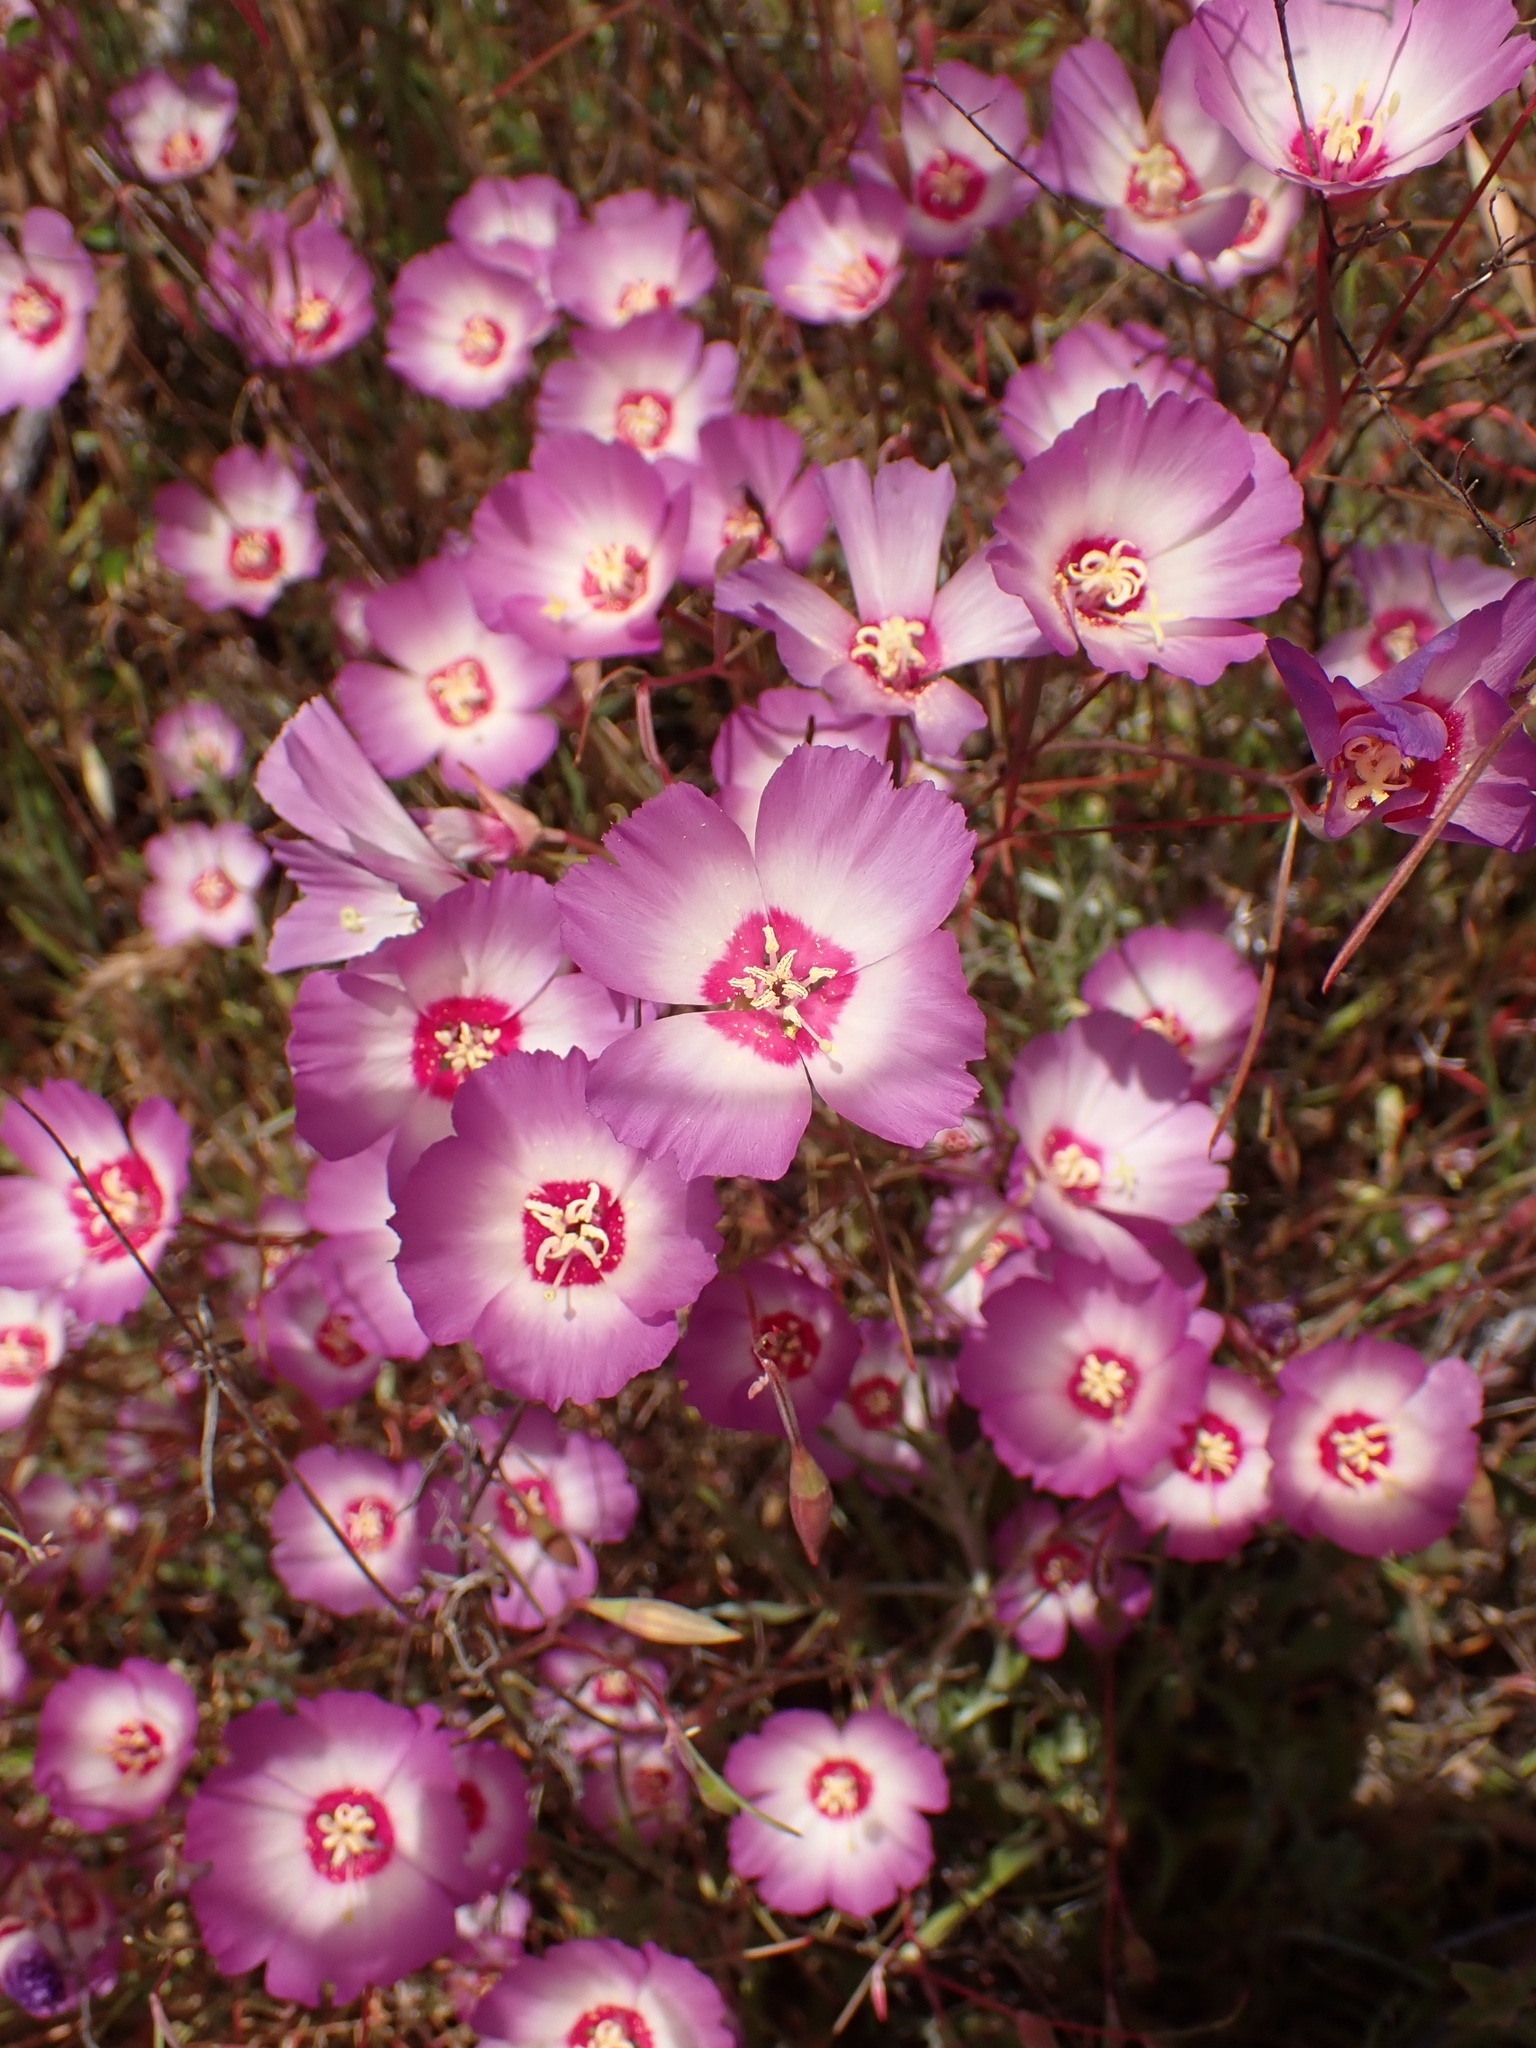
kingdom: Plantae
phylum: Tracheophyta
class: Magnoliopsida
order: Myrtales
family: Onagraceae
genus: Clarkia
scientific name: Clarkia gracilis
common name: Graceful clarkia
